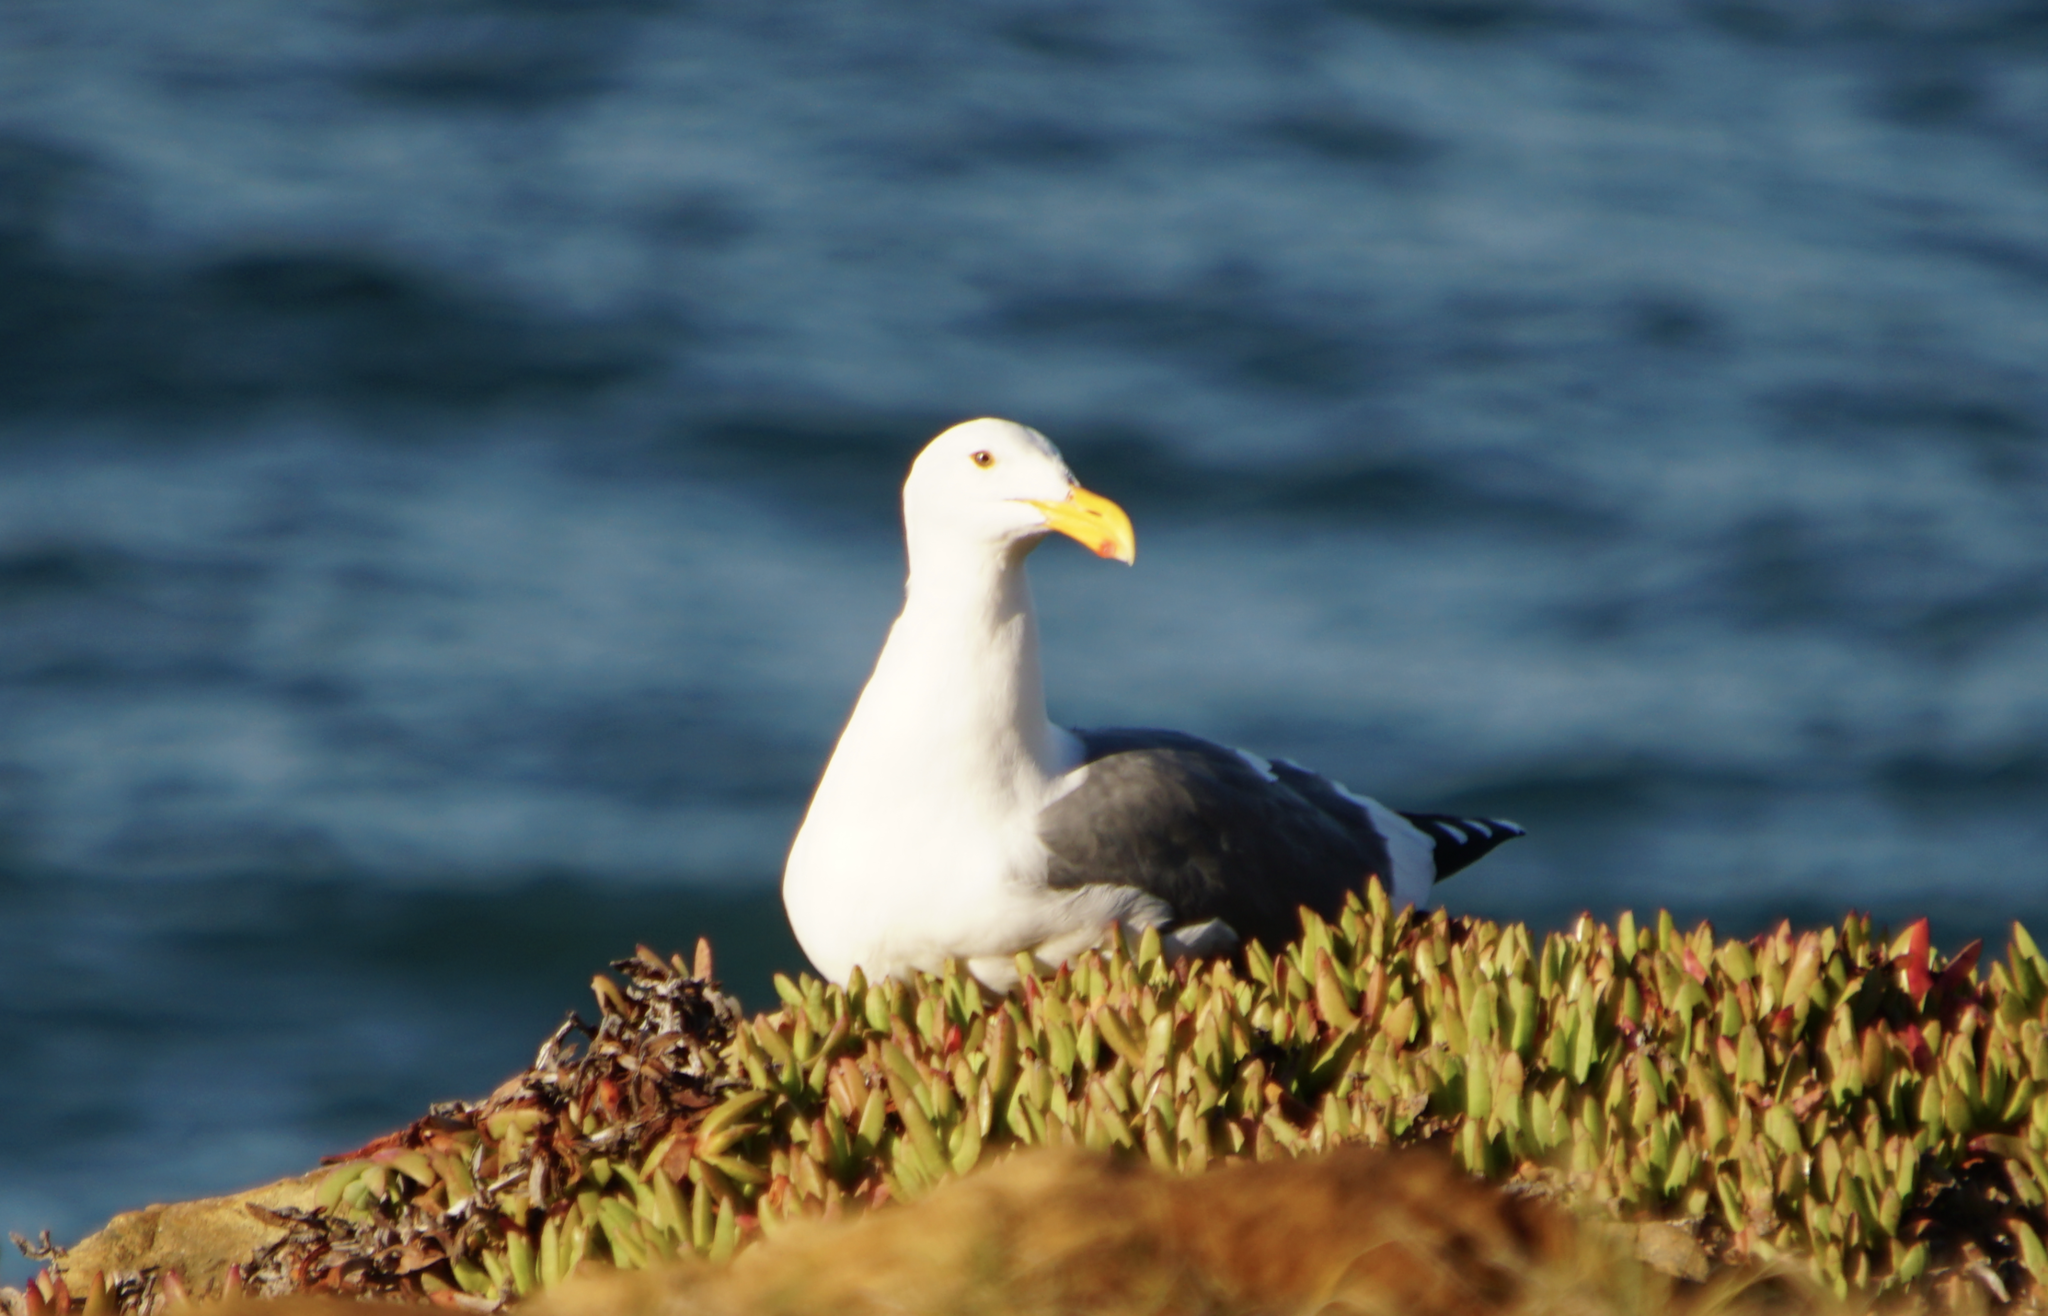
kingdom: Animalia
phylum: Chordata
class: Aves
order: Charadriiformes
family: Laridae
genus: Larus
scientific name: Larus occidentalis
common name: Western gull
